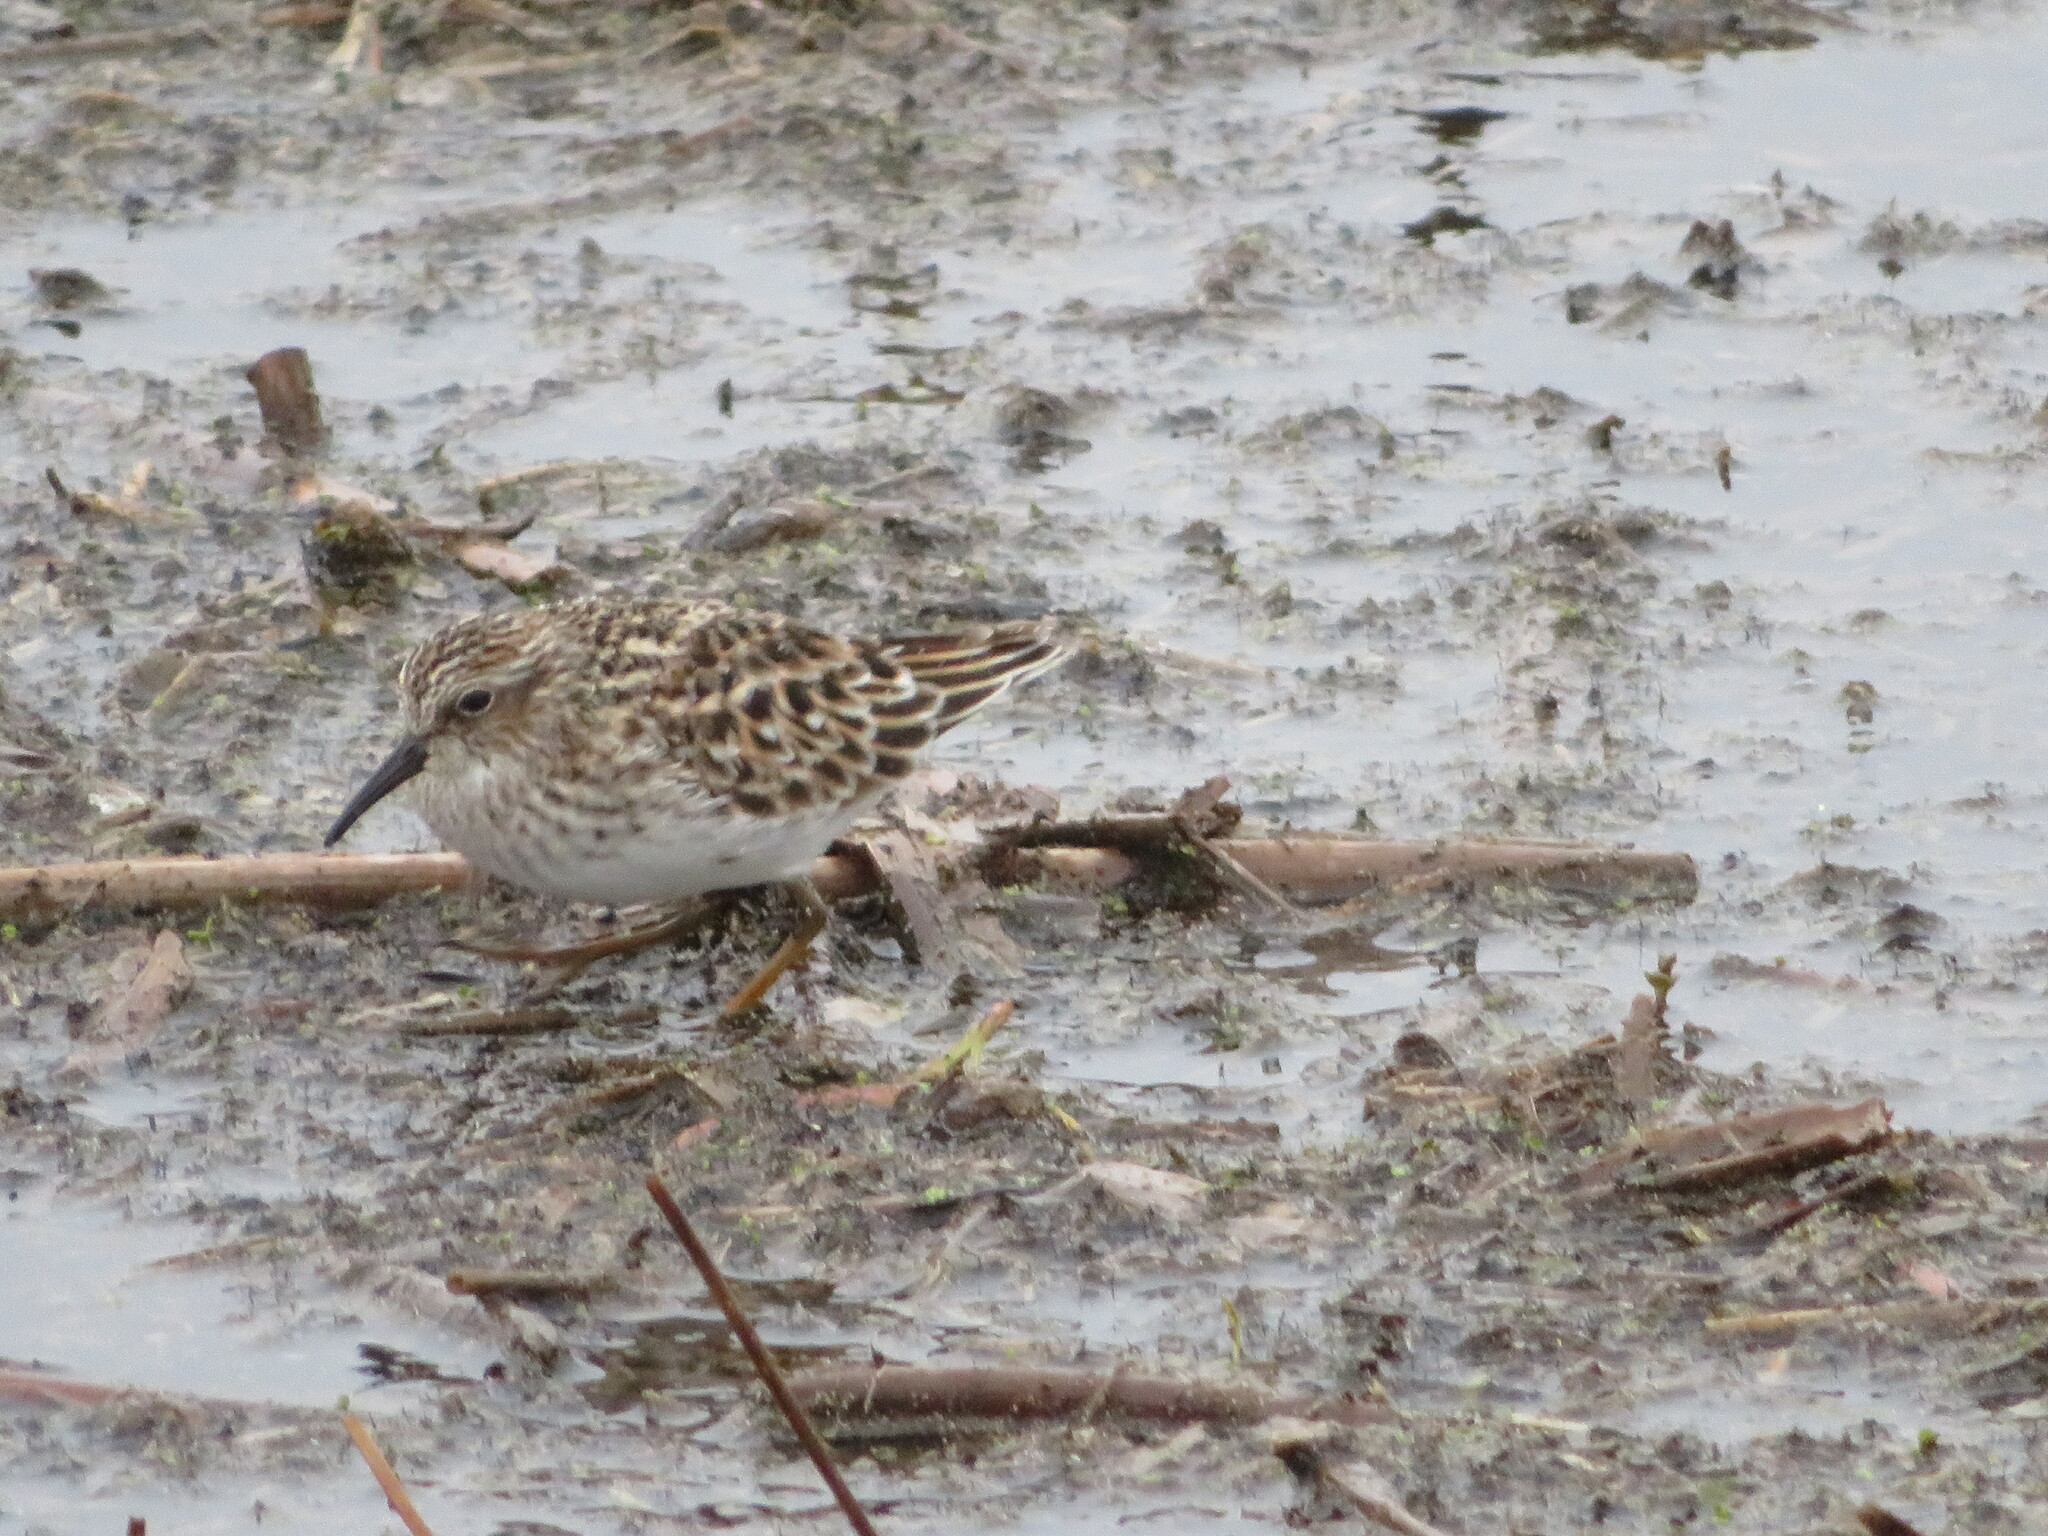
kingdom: Animalia
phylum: Chordata
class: Aves
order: Charadriiformes
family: Scolopacidae
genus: Calidris
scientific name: Calidris minutilla
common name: Least sandpiper
